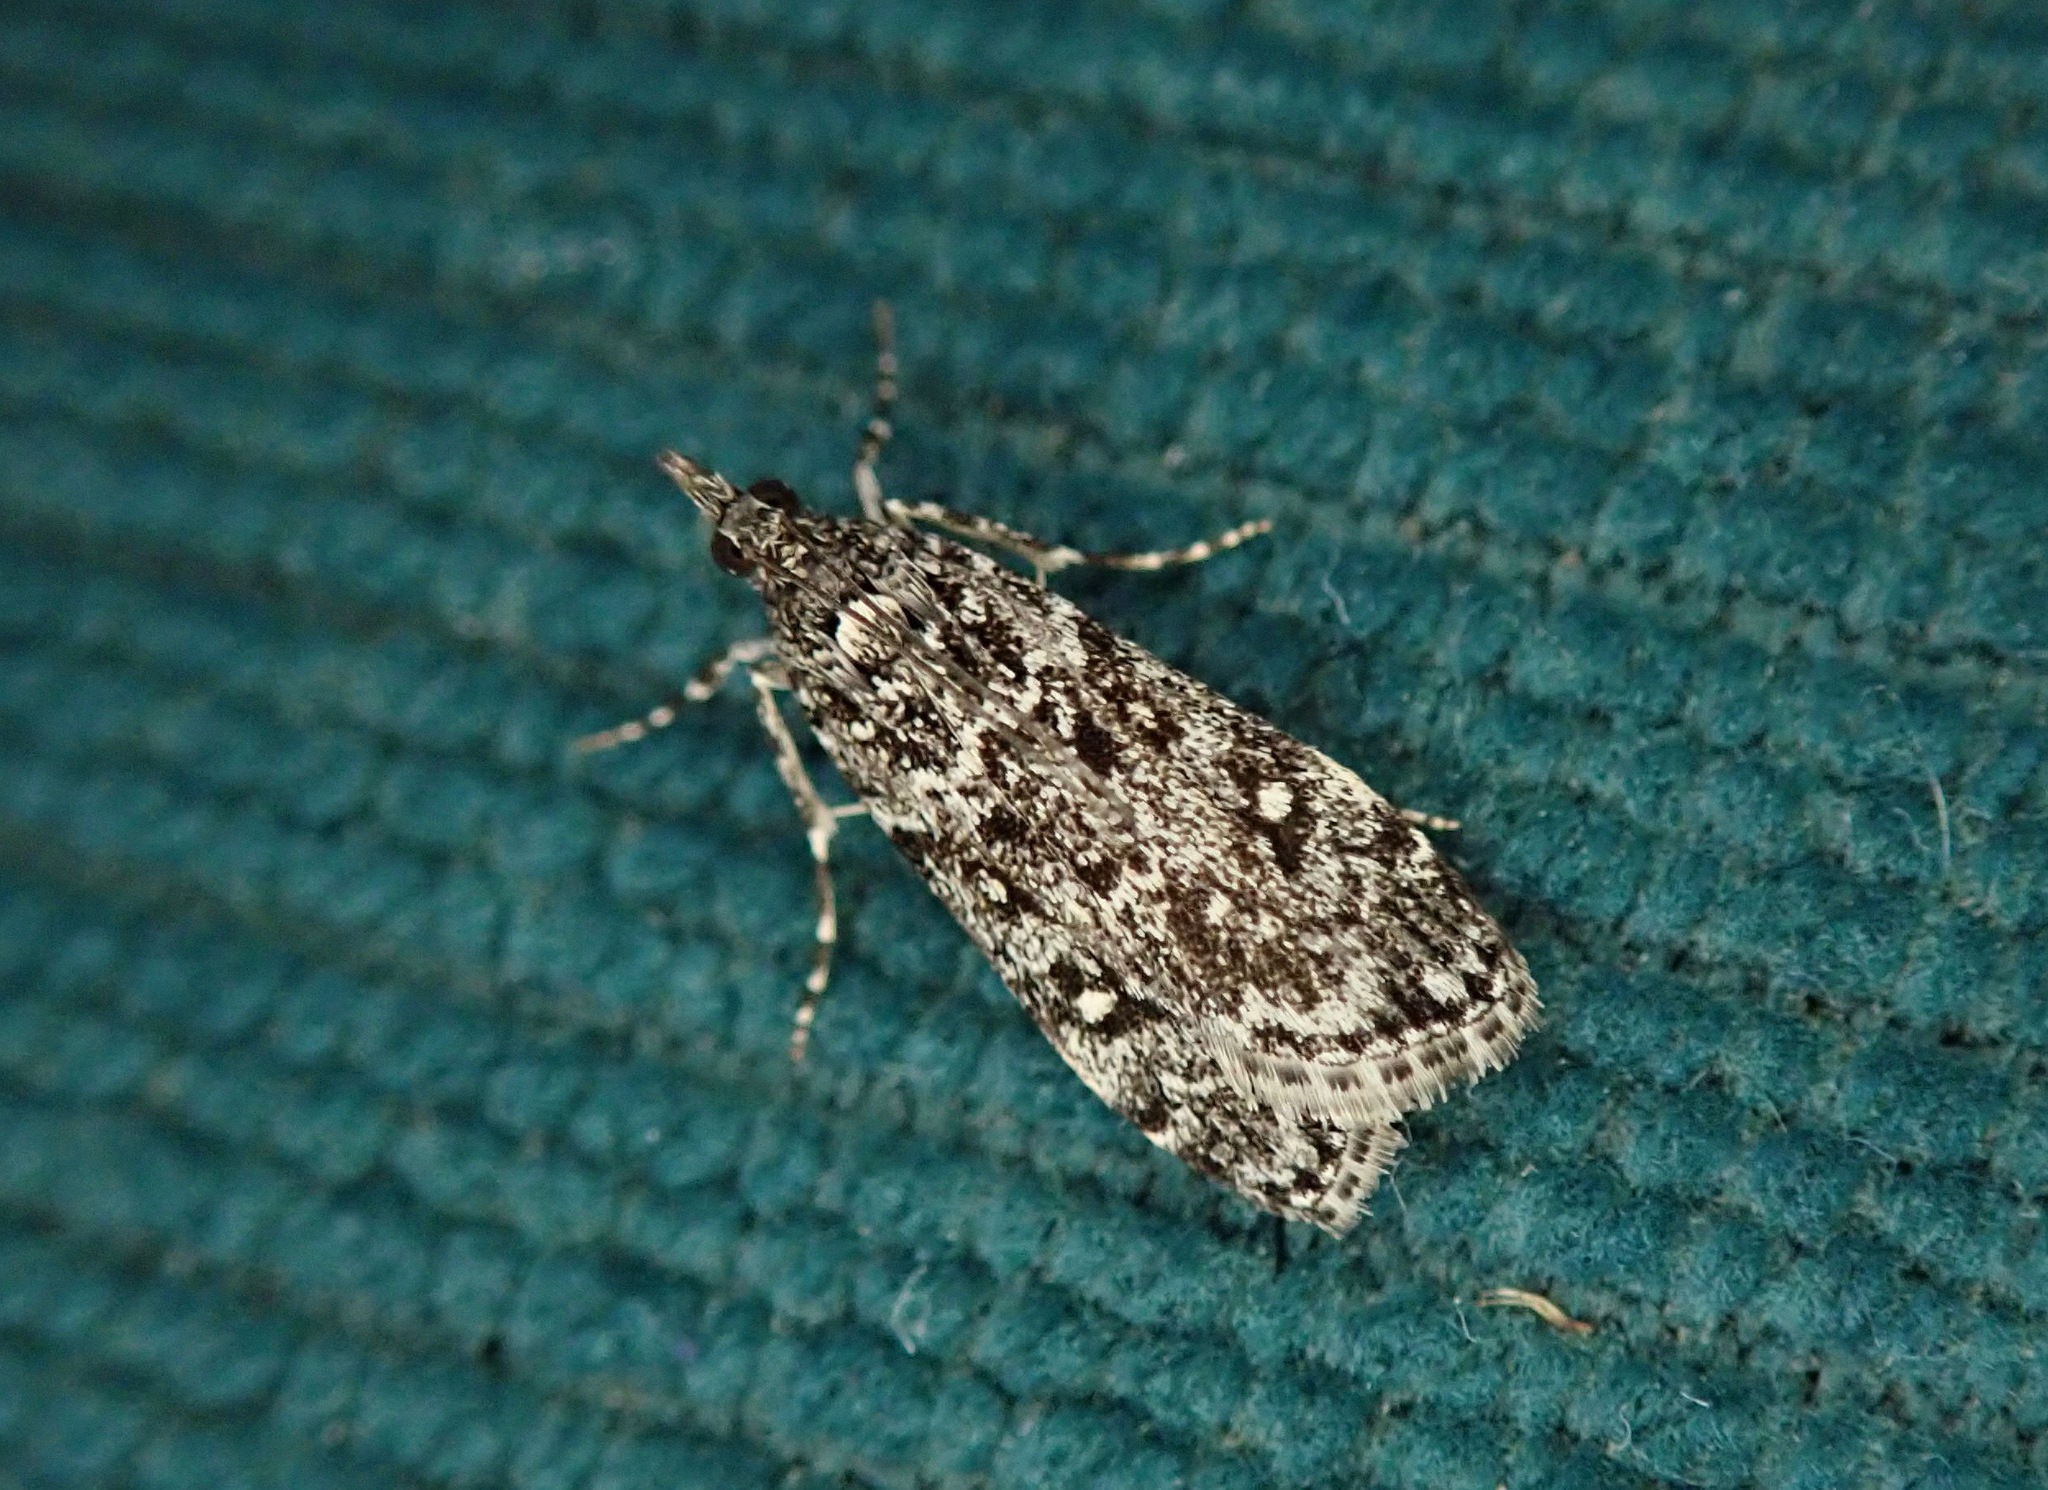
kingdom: Animalia
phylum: Arthropoda
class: Insecta
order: Lepidoptera
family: Crambidae
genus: Eudonia
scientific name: Eudonia philerga
